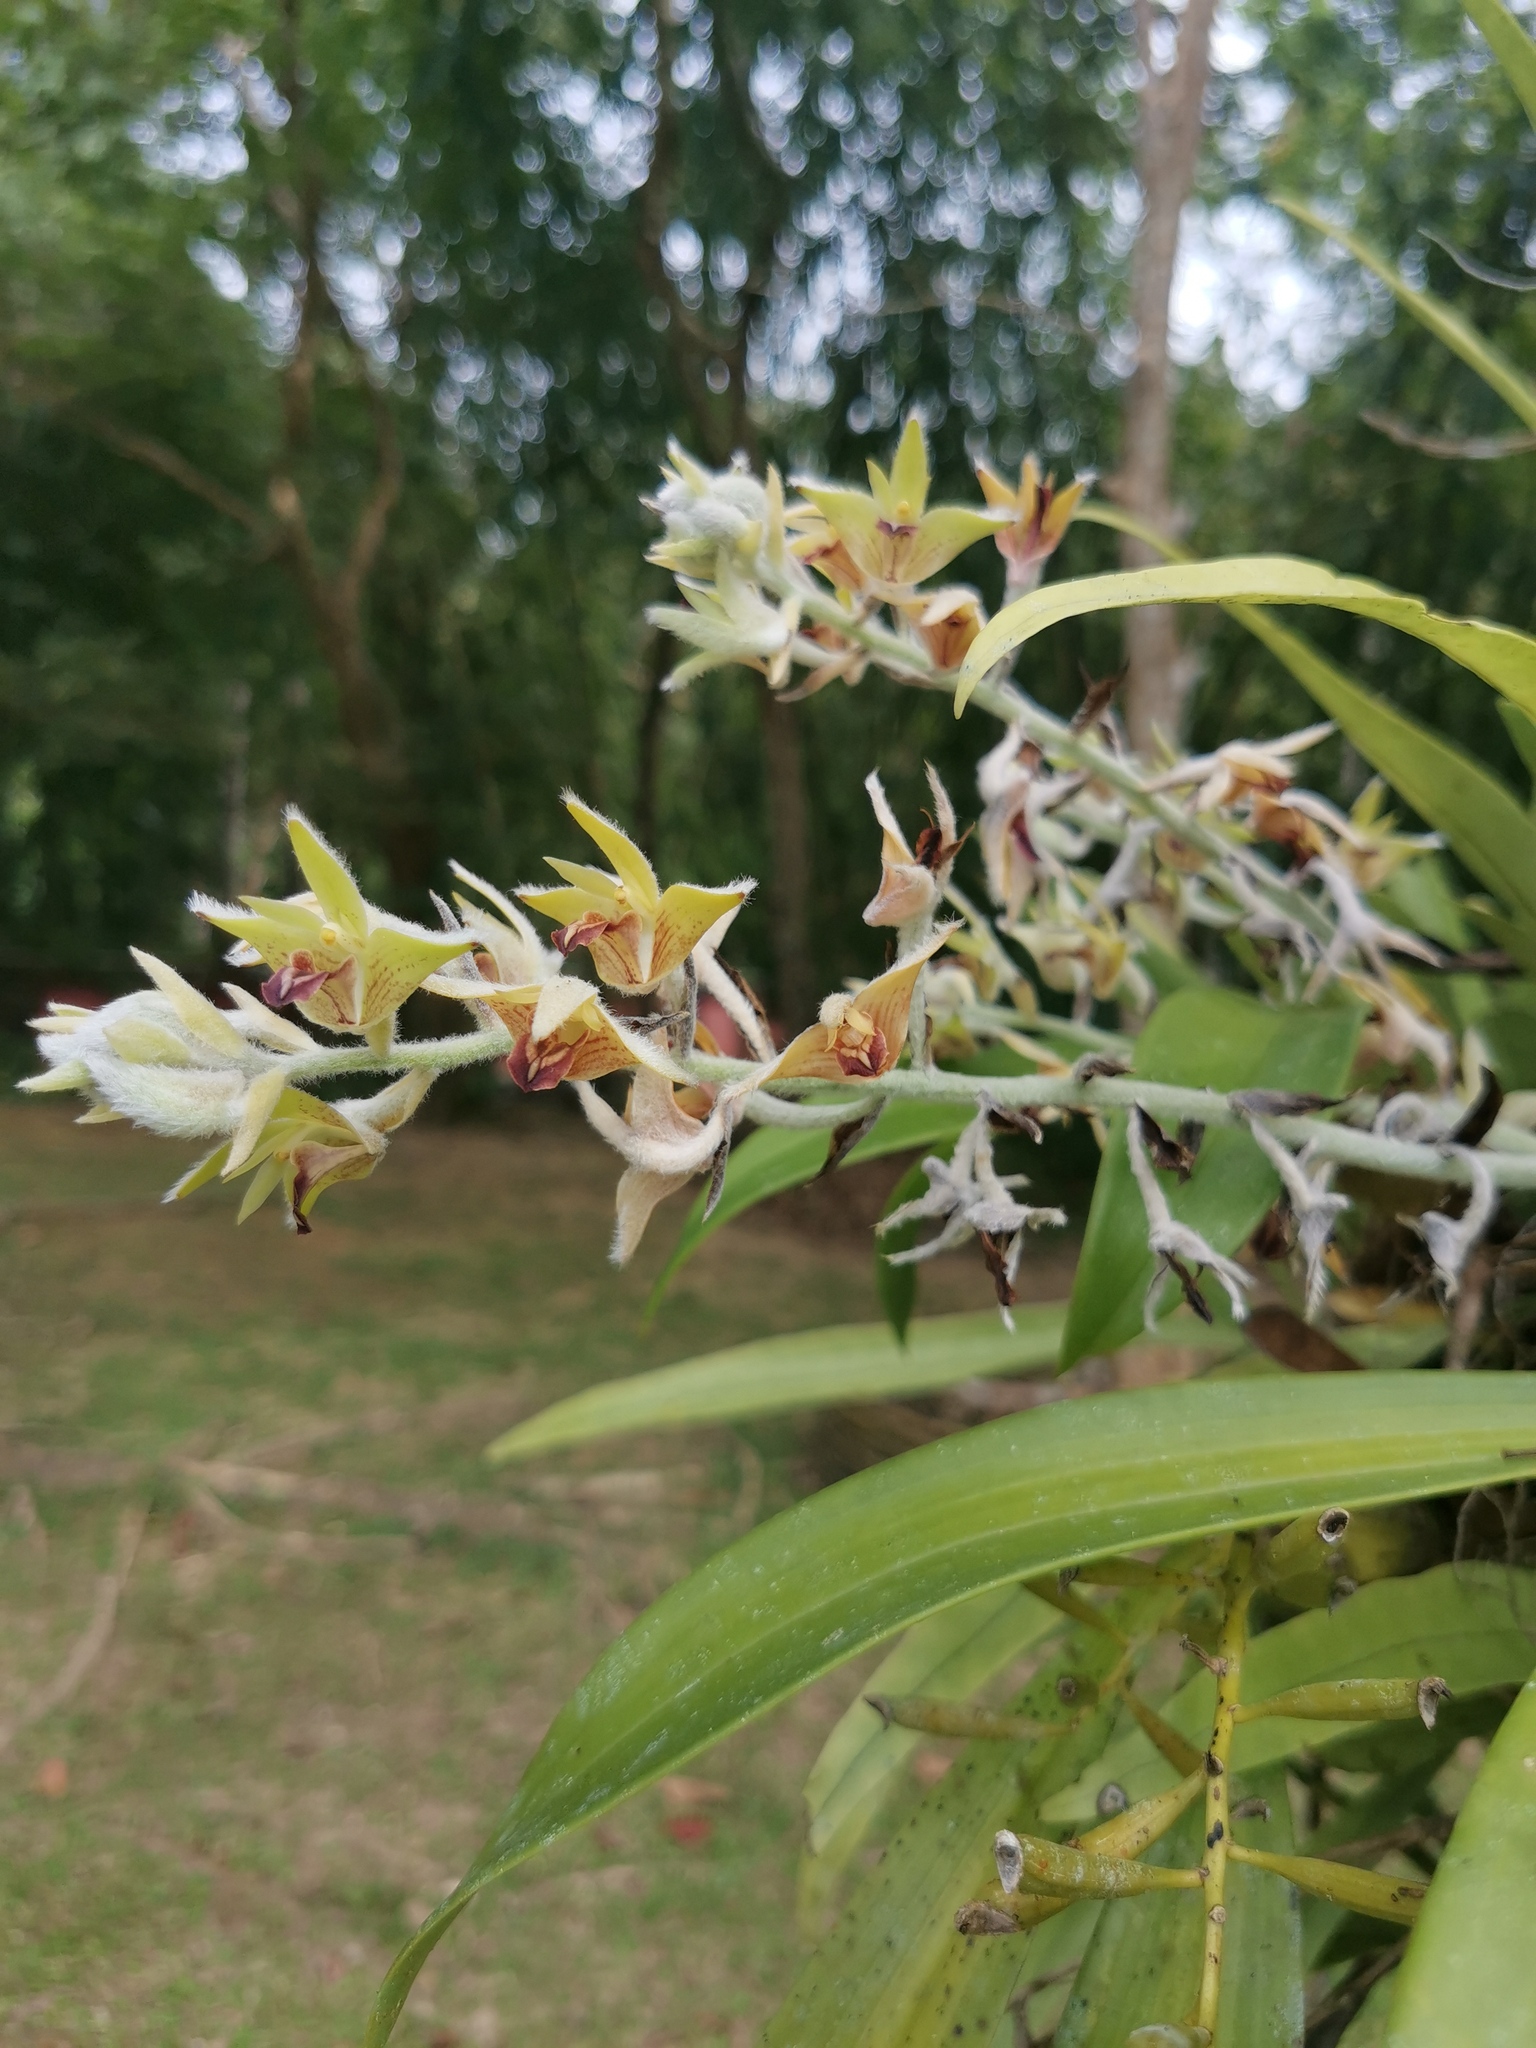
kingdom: Plantae
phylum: Tracheophyta
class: Liliopsida
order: Asparagales
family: Orchidaceae
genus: Dendrolirium
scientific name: Dendrolirium lasiopetalum
